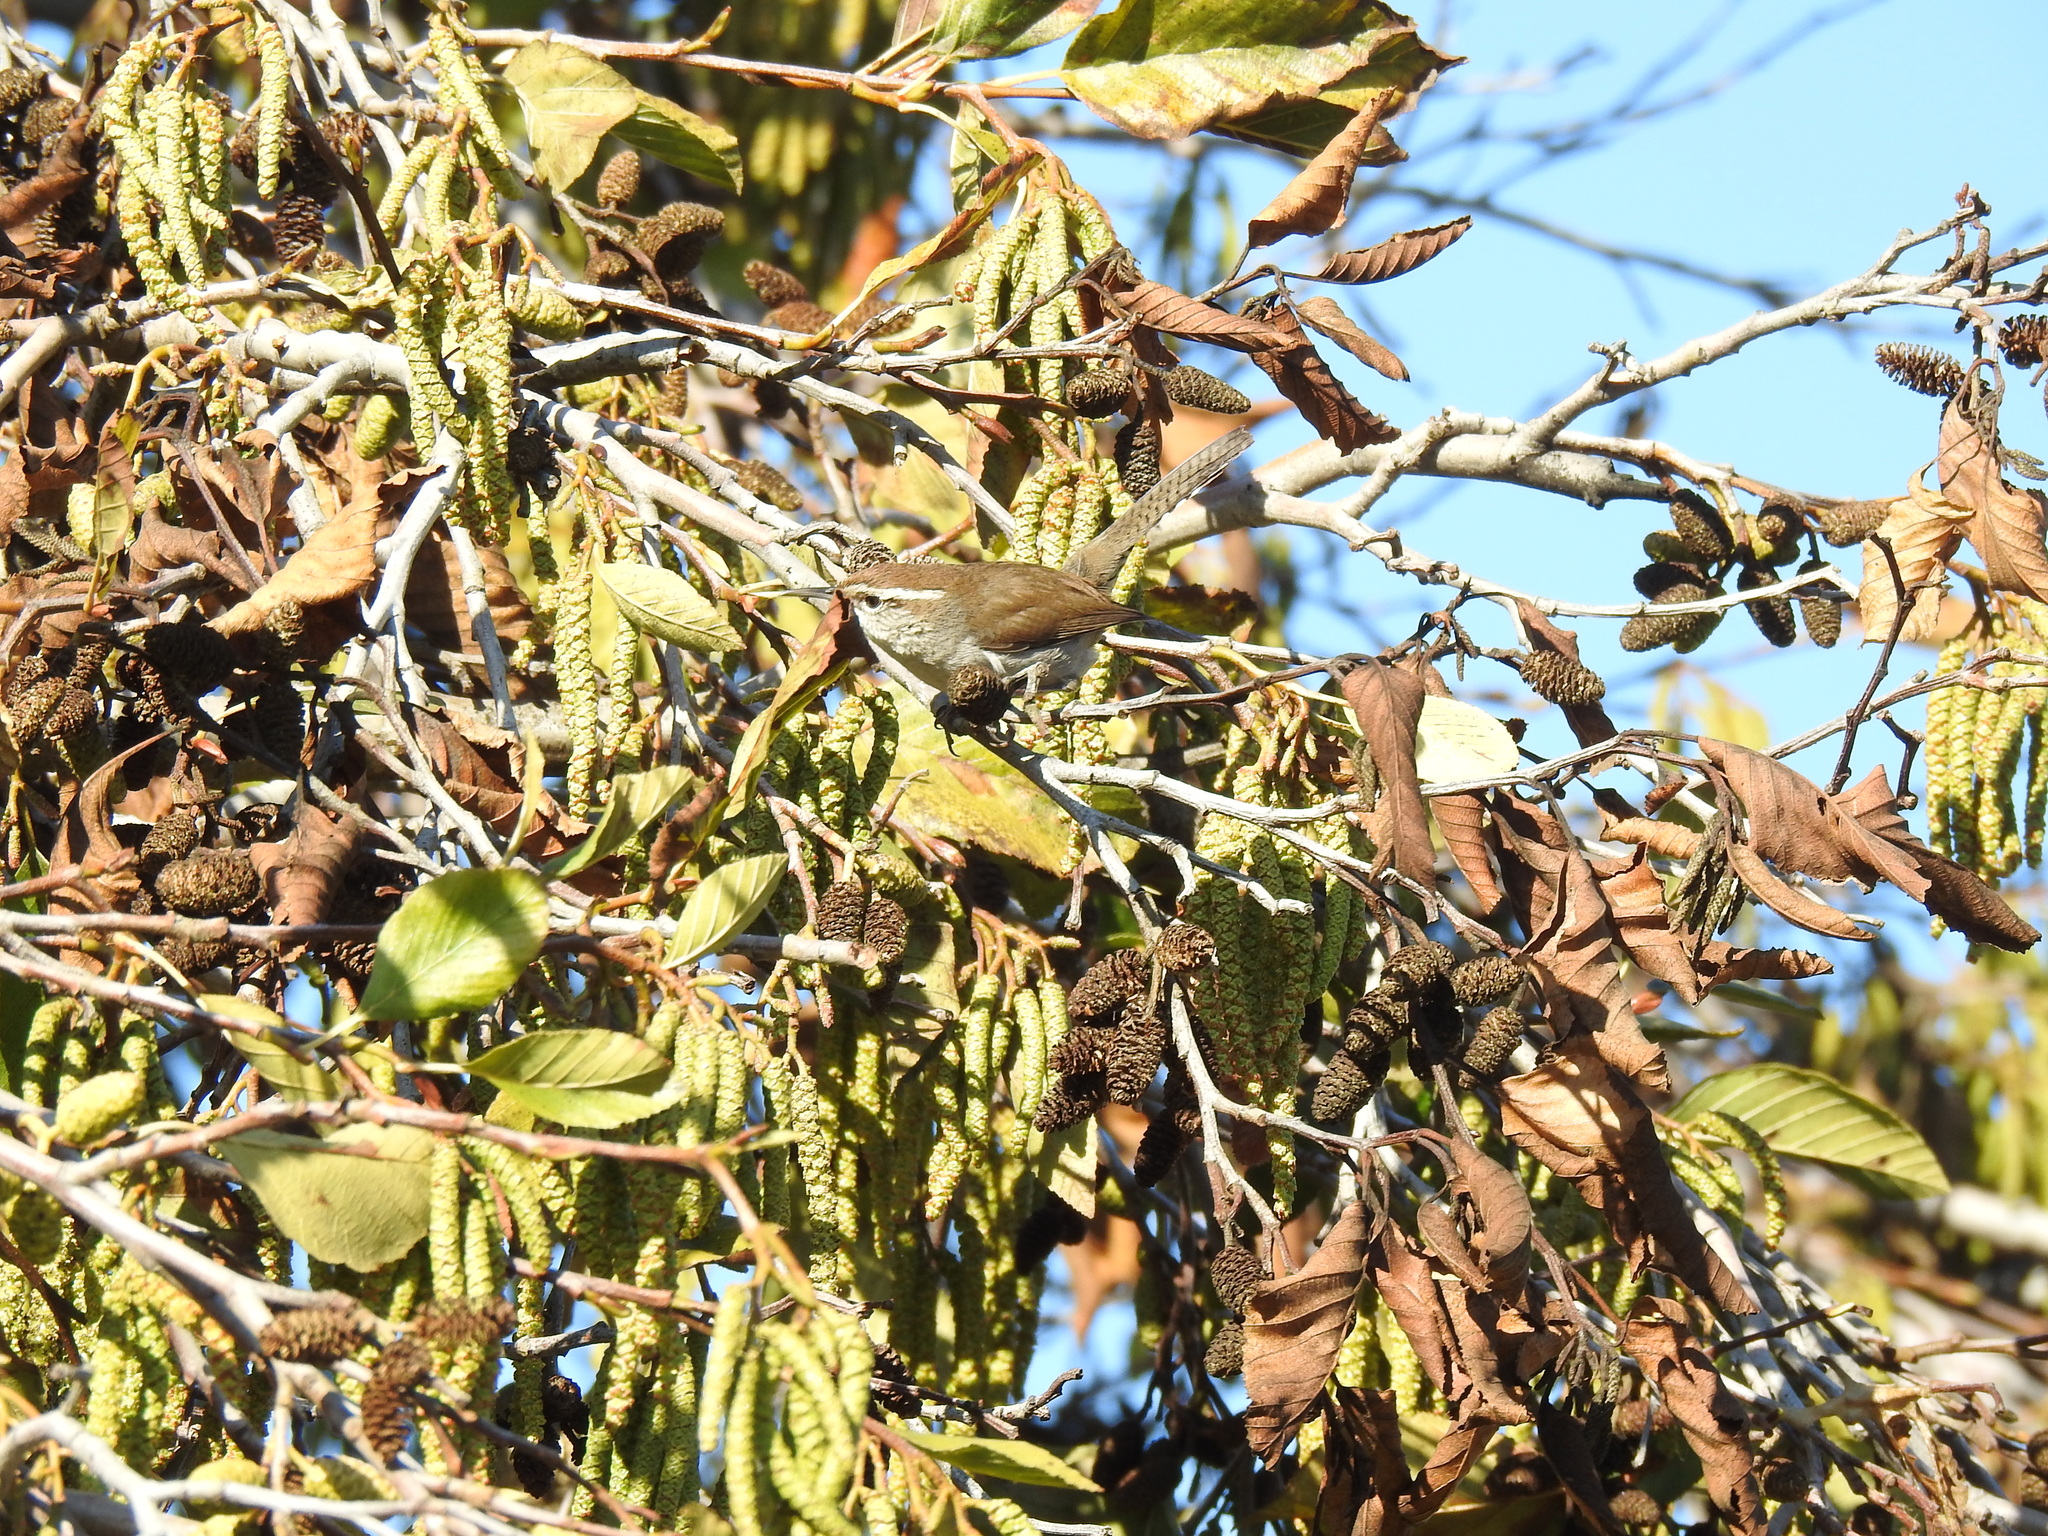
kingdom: Animalia
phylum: Chordata
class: Aves
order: Passeriformes
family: Troglodytidae
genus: Thryomanes
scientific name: Thryomanes bewickii
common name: Bewick's wren
